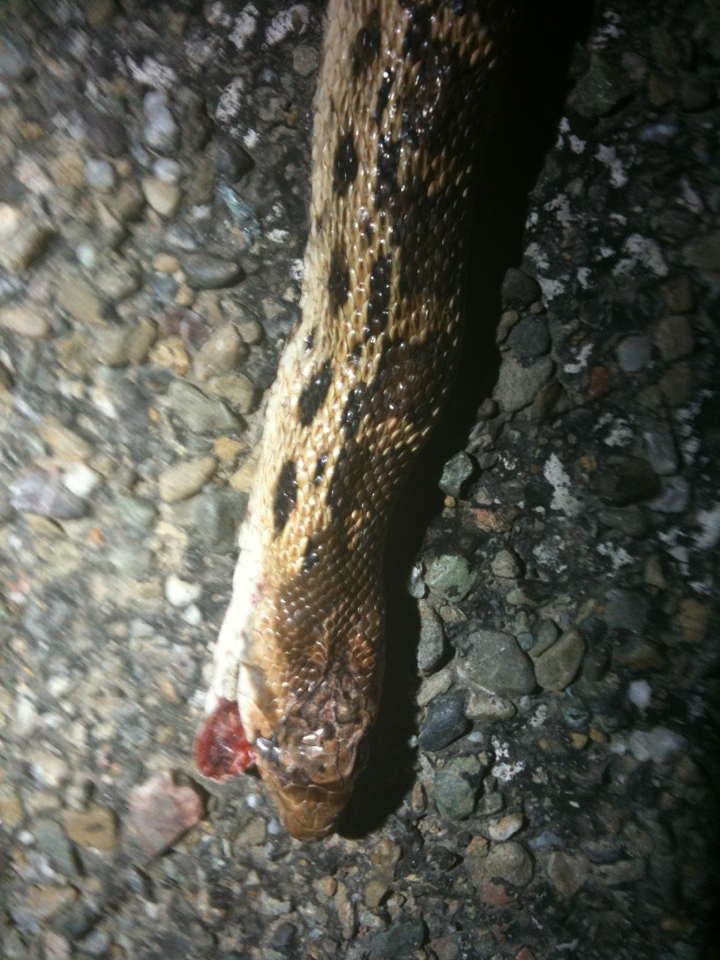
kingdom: Animalia
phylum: Chordata
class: Squamata
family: Colubridae
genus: Pituophis
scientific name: Pituophis catenifer
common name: Gopher snake
